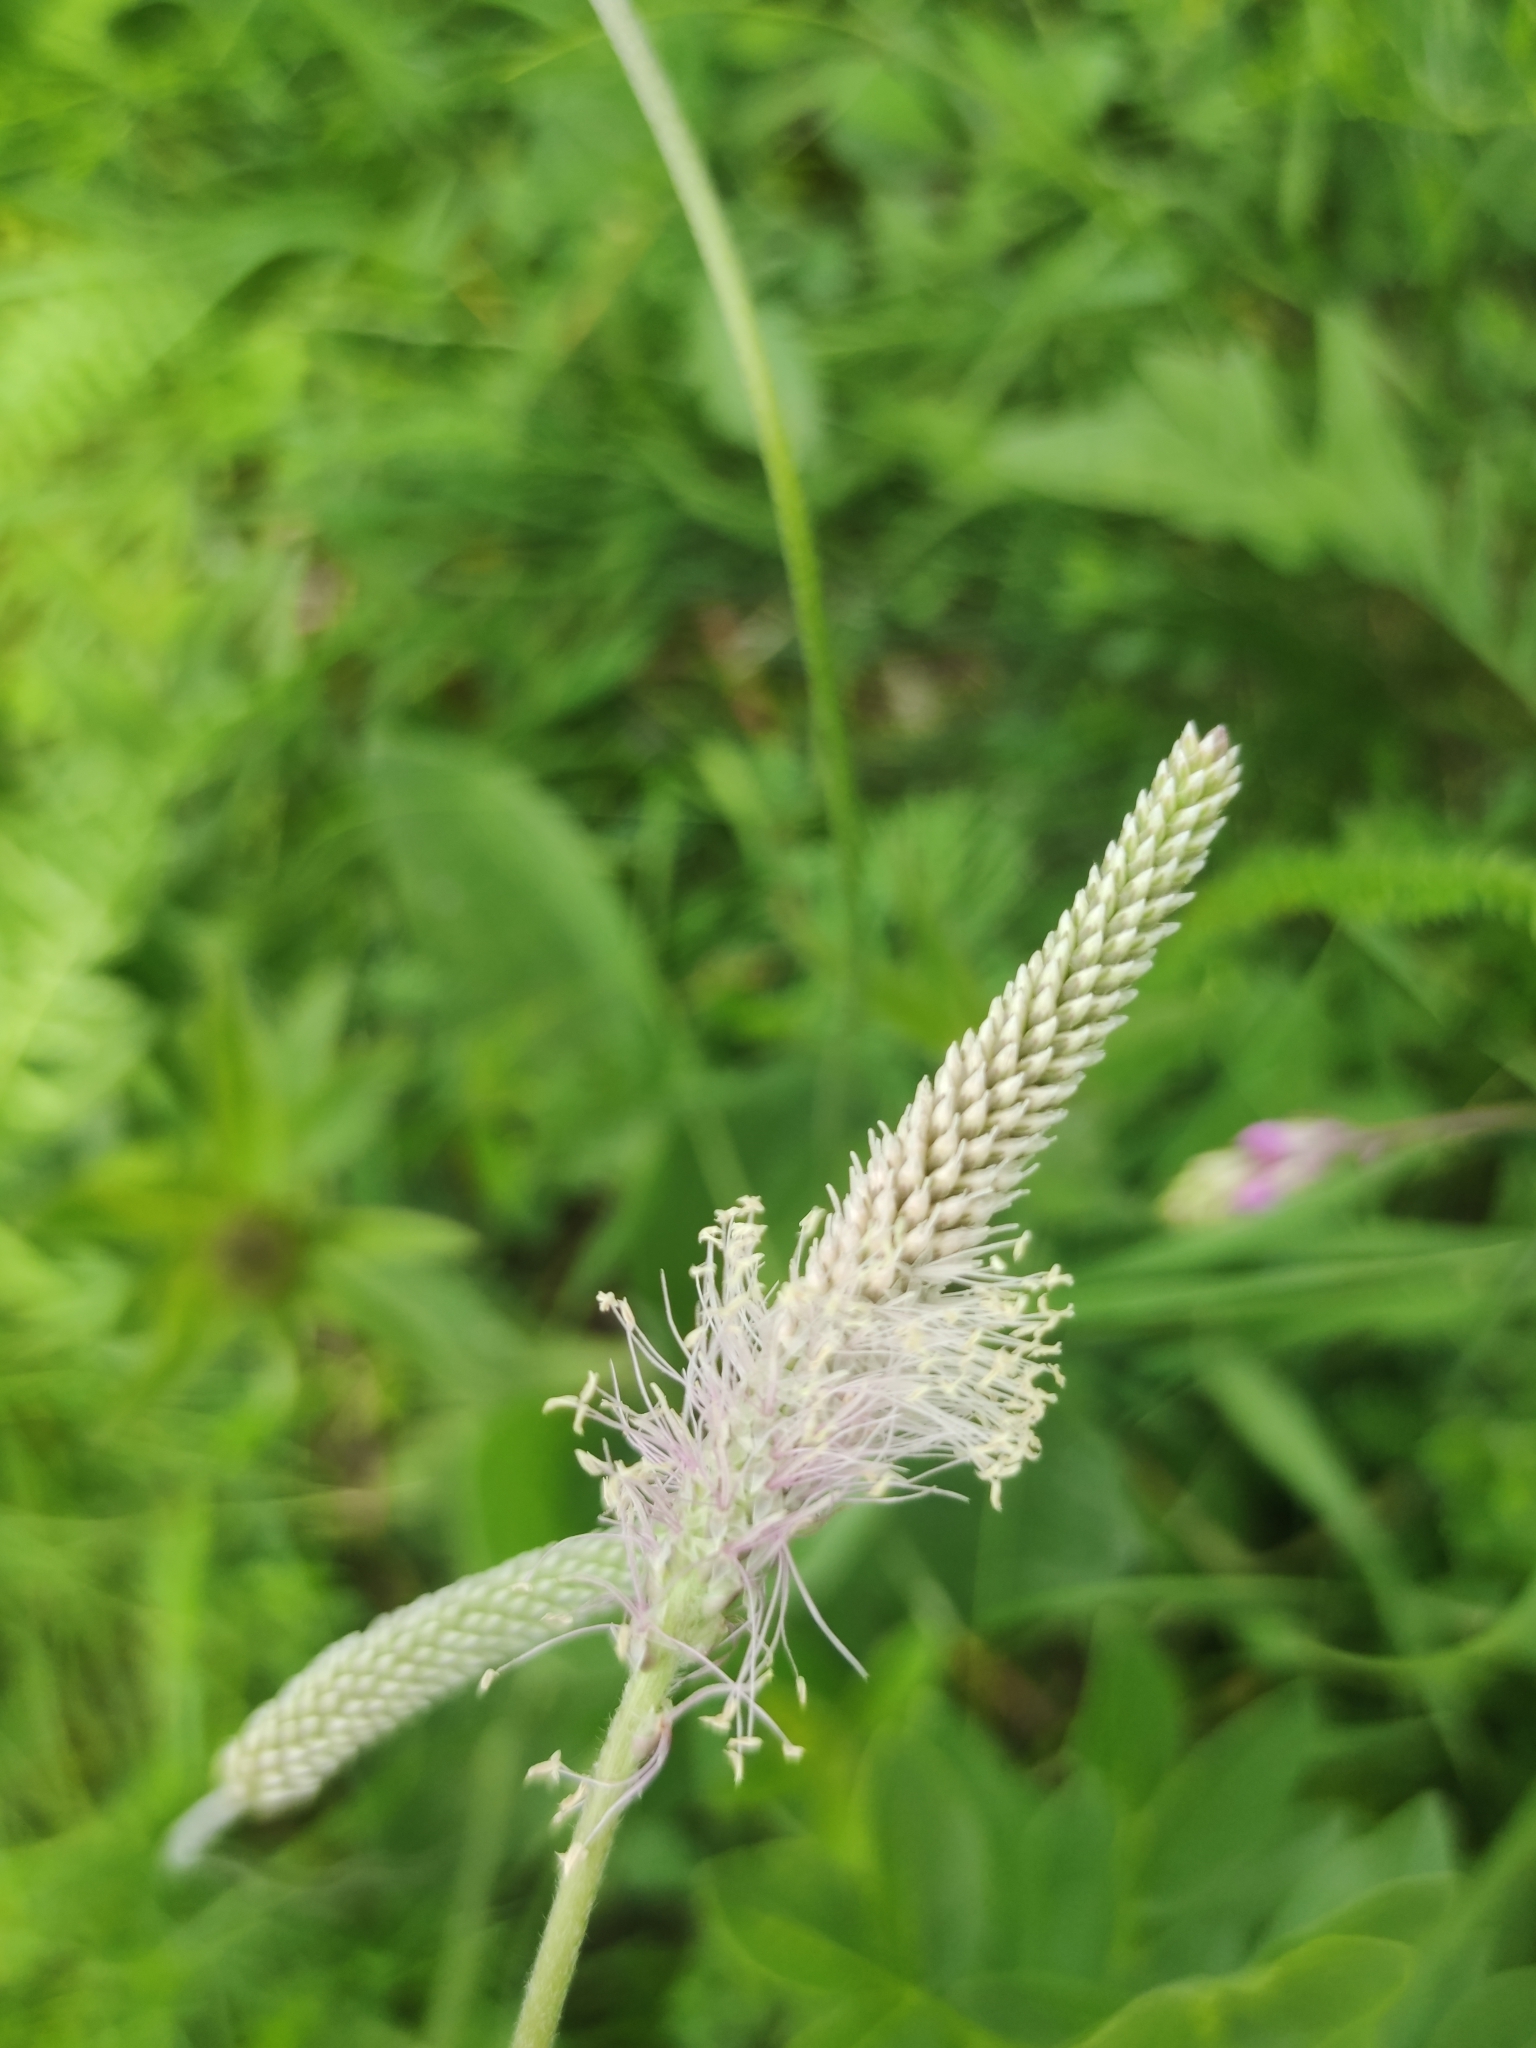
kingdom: Plantae
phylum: Tracheophyta
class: Magnoliopsida
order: Lamiales
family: Plantaginaceae
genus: Plantago
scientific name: Plantago media
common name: Hoary plantain
